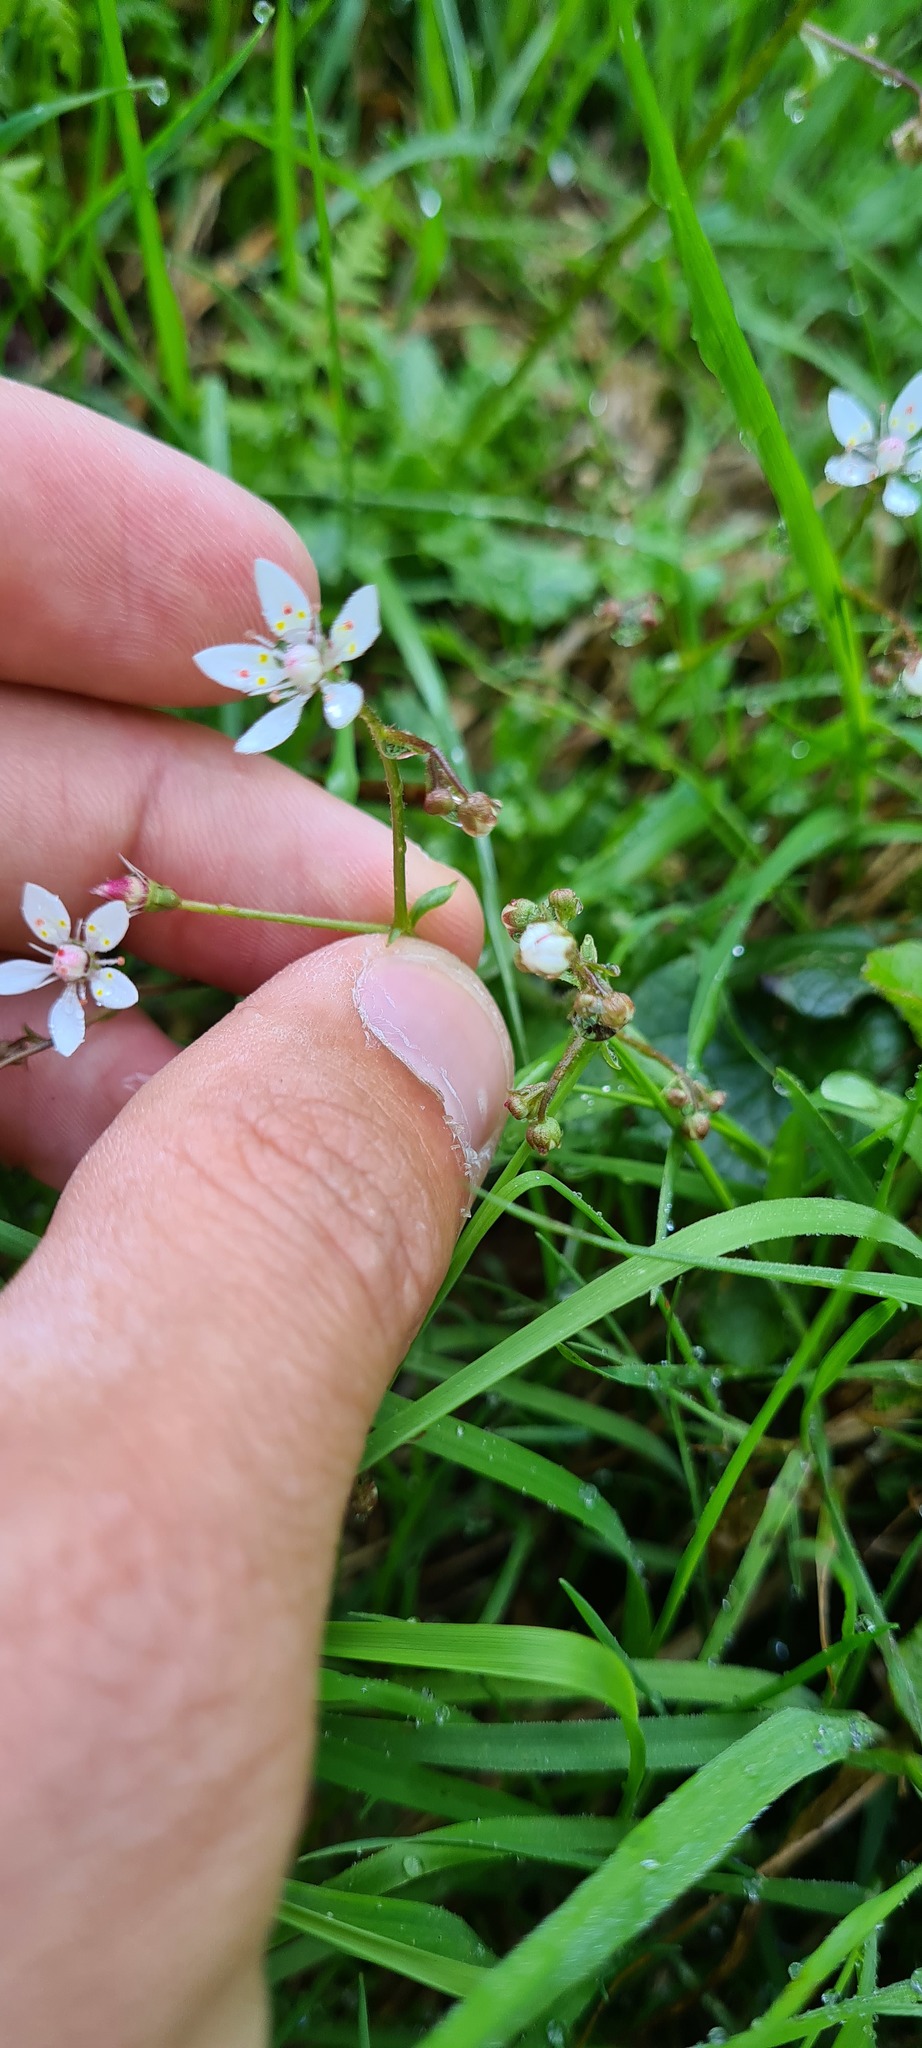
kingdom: Plantae
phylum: Tracheophyta
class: Magnoliopsida
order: Saxifragales
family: Saxifragaceae
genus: Micranthes
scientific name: Micranthes stellaris
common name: Starry saxifrage
